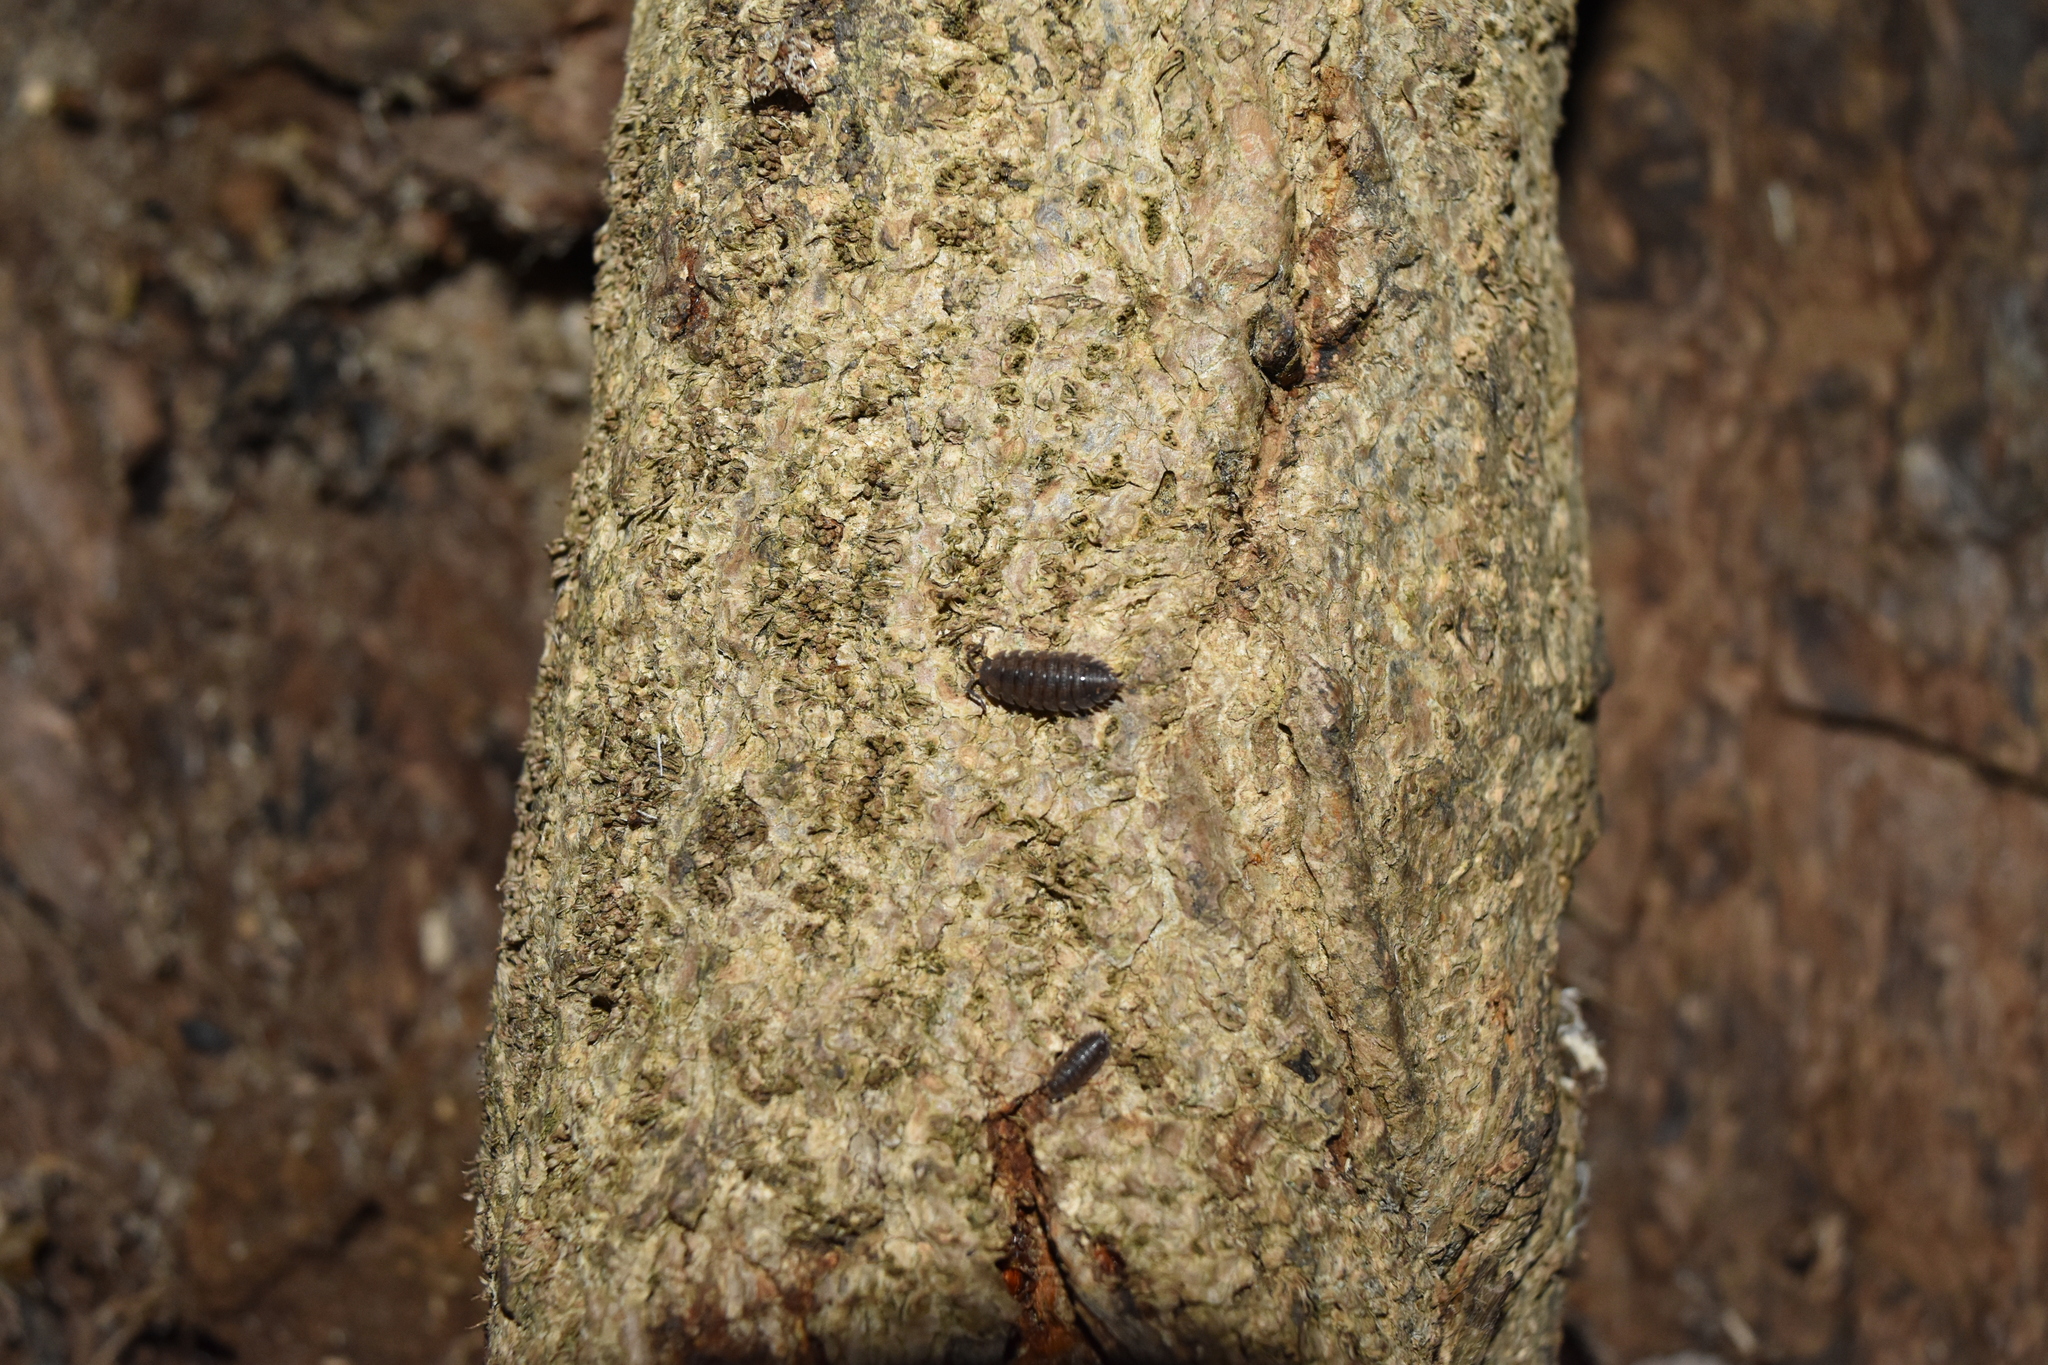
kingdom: Animalia
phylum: Arthropoda
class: Malacostraca
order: Isopoda
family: Porcellionidae
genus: Porcellio
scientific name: Porcellio scaber
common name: Common rough woodlouse
